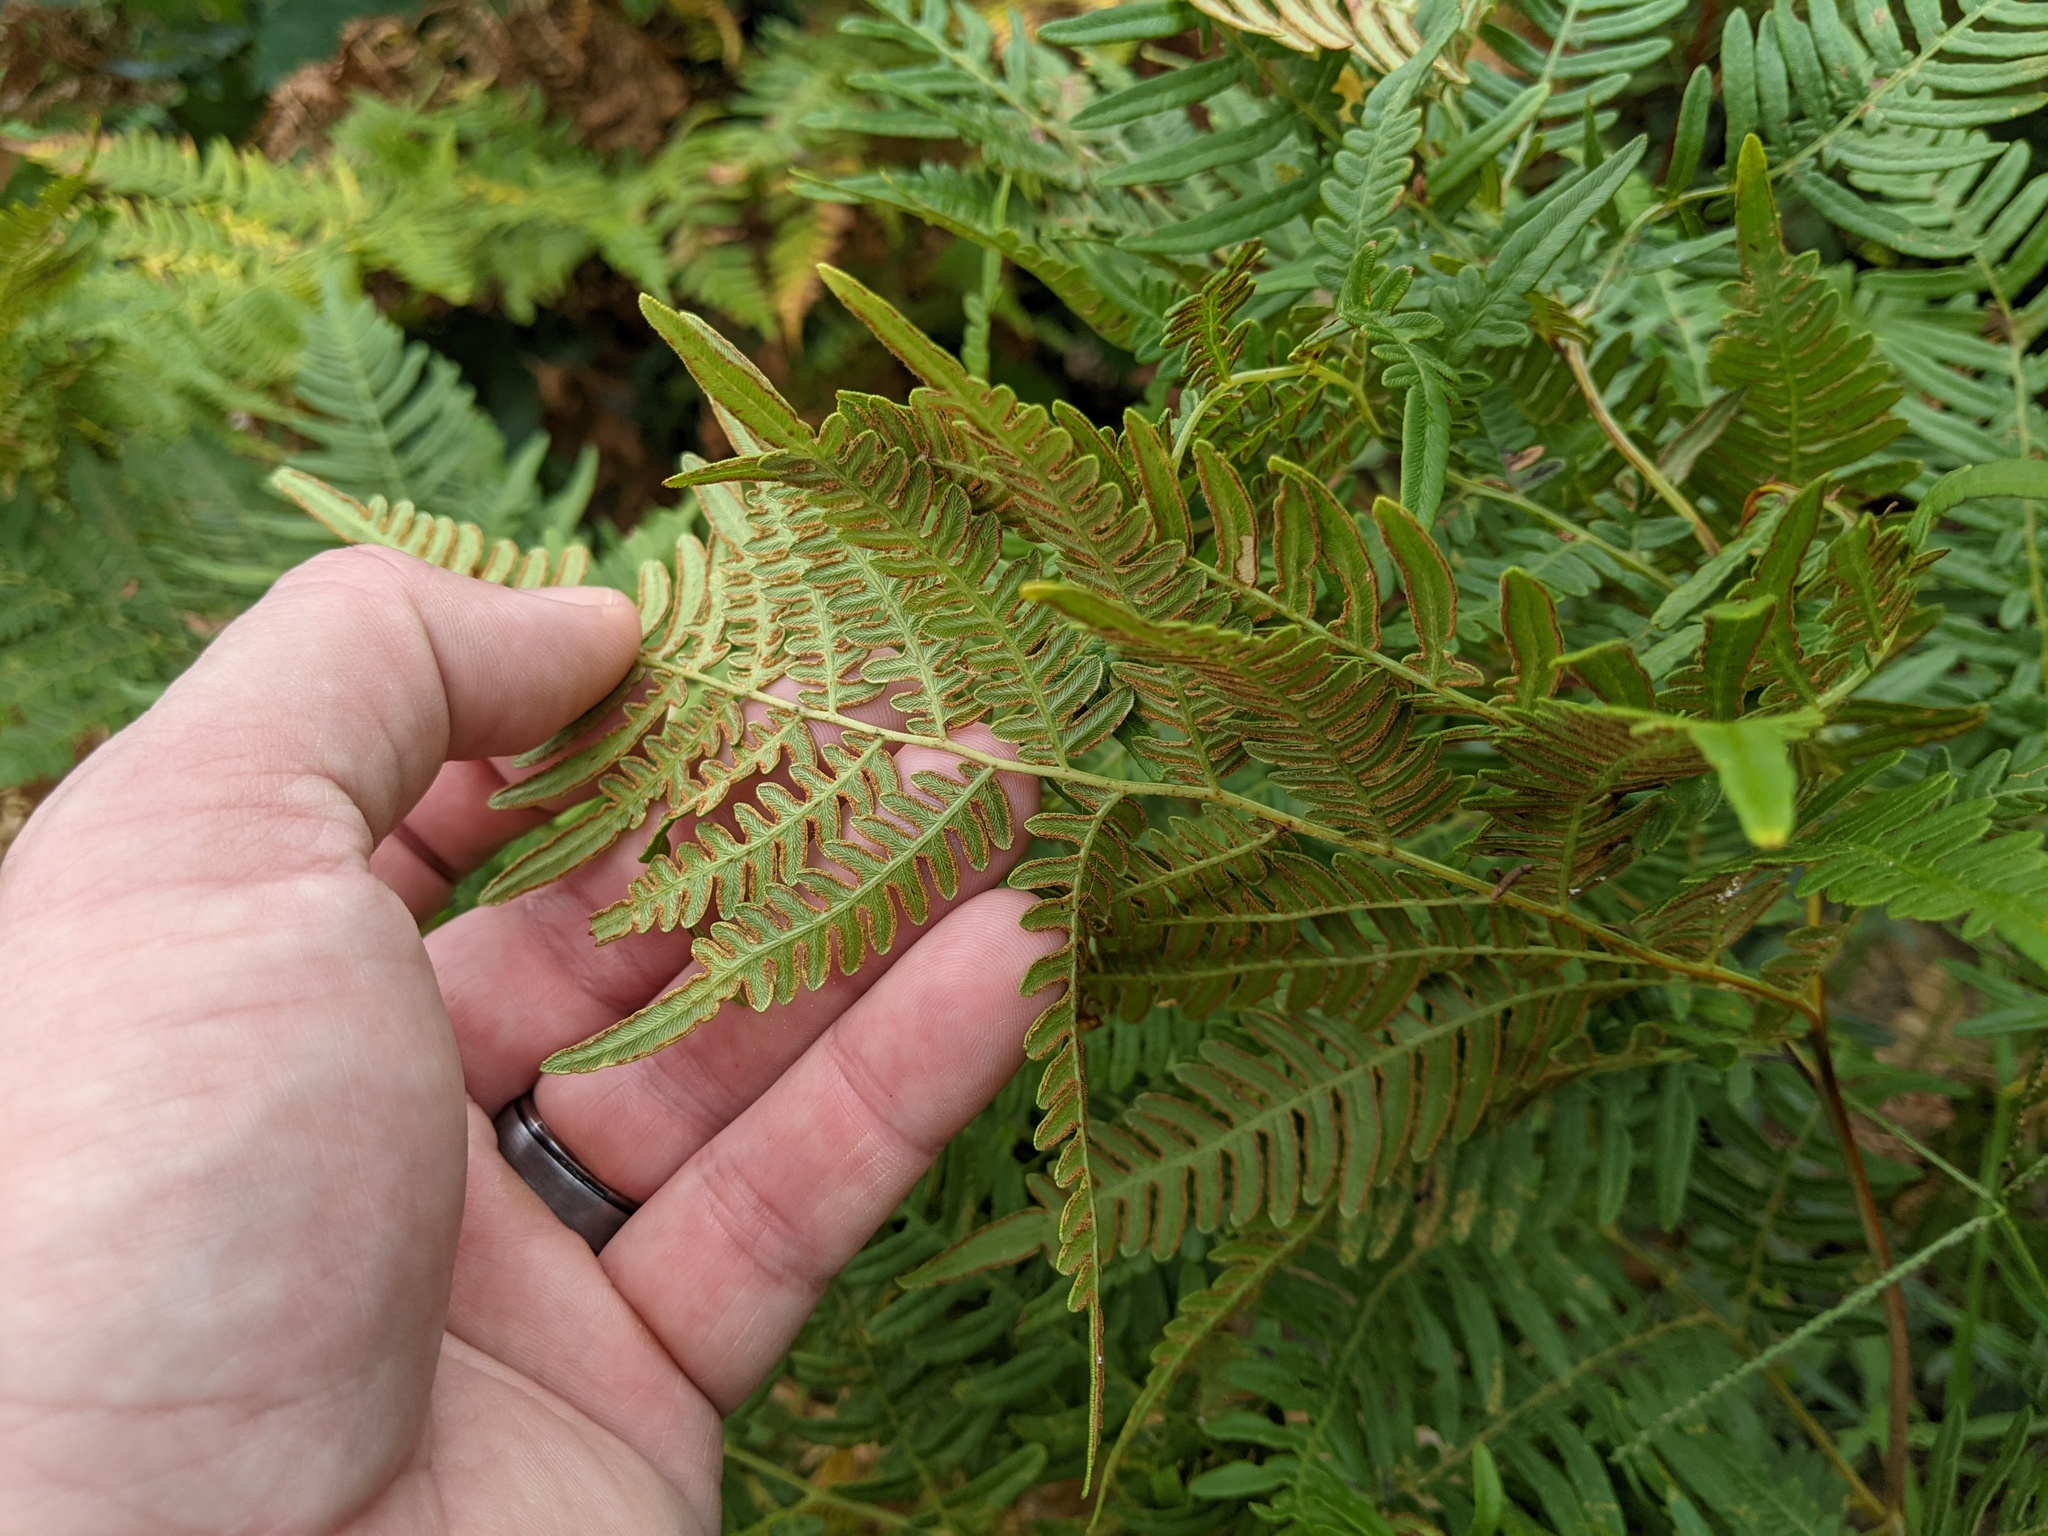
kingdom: Plantae
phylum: Tracheophyta
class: Polypodiopsida
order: Polypodiales
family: Dennstaedtiaceae
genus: Pteridium
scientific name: Pteridium aquilinum
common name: Bracken
